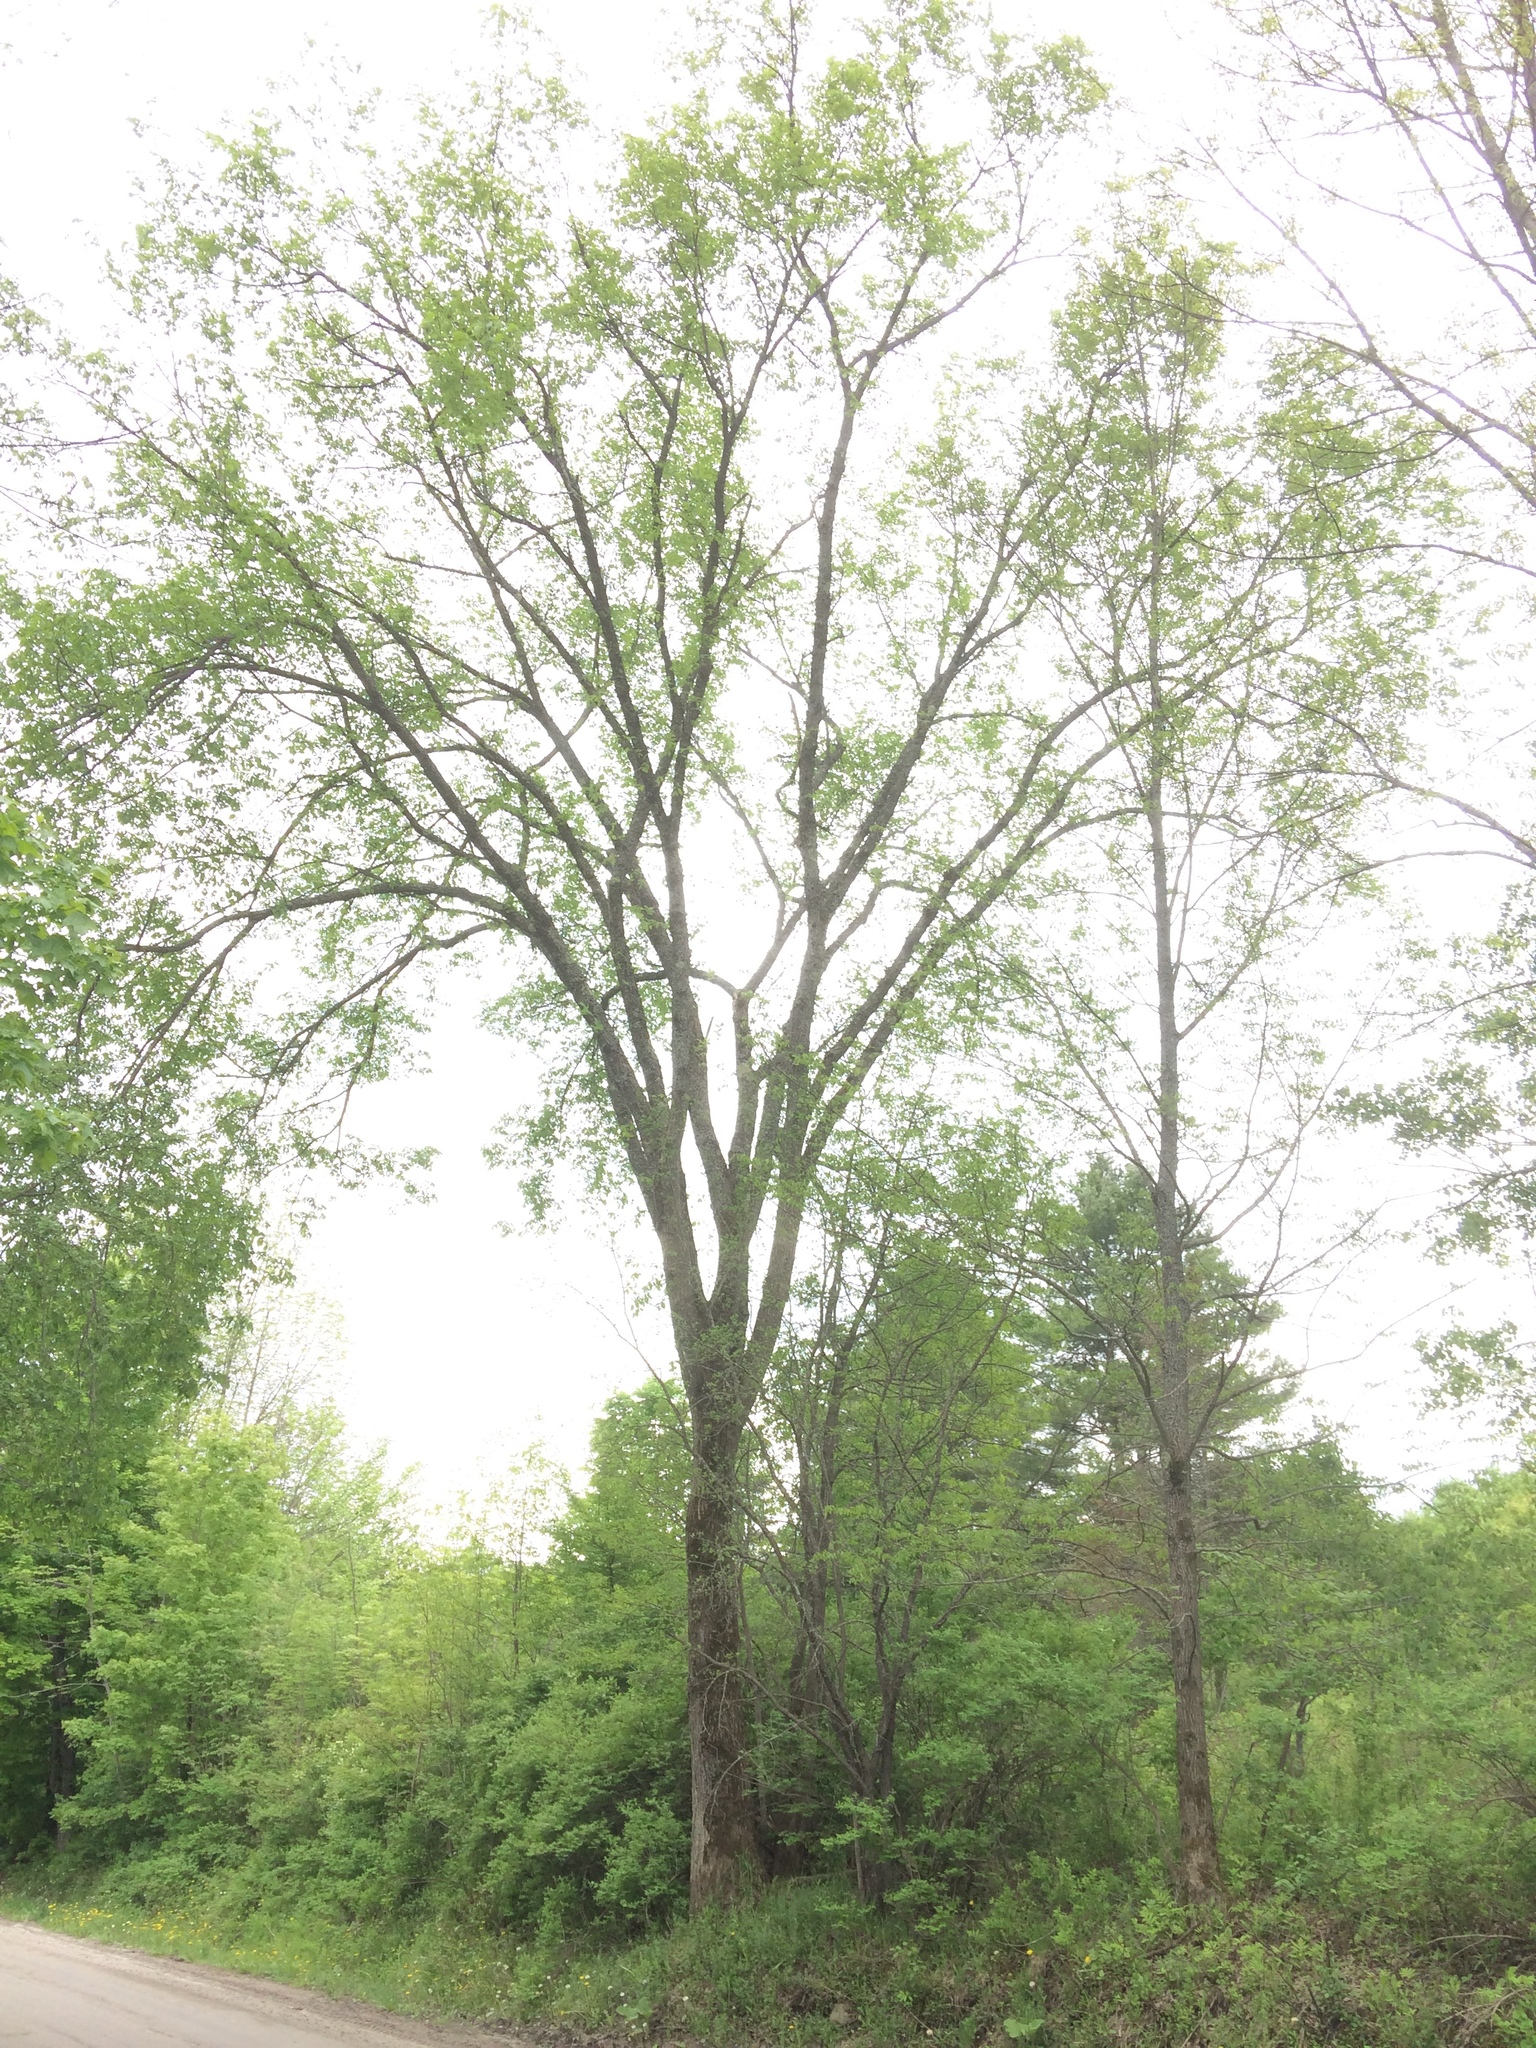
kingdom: Plantae
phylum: Tracheophyta
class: Magnoliopsida
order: Rosales
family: Ulmaceae
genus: Ulmus
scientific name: Ulmus americana
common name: American elm
